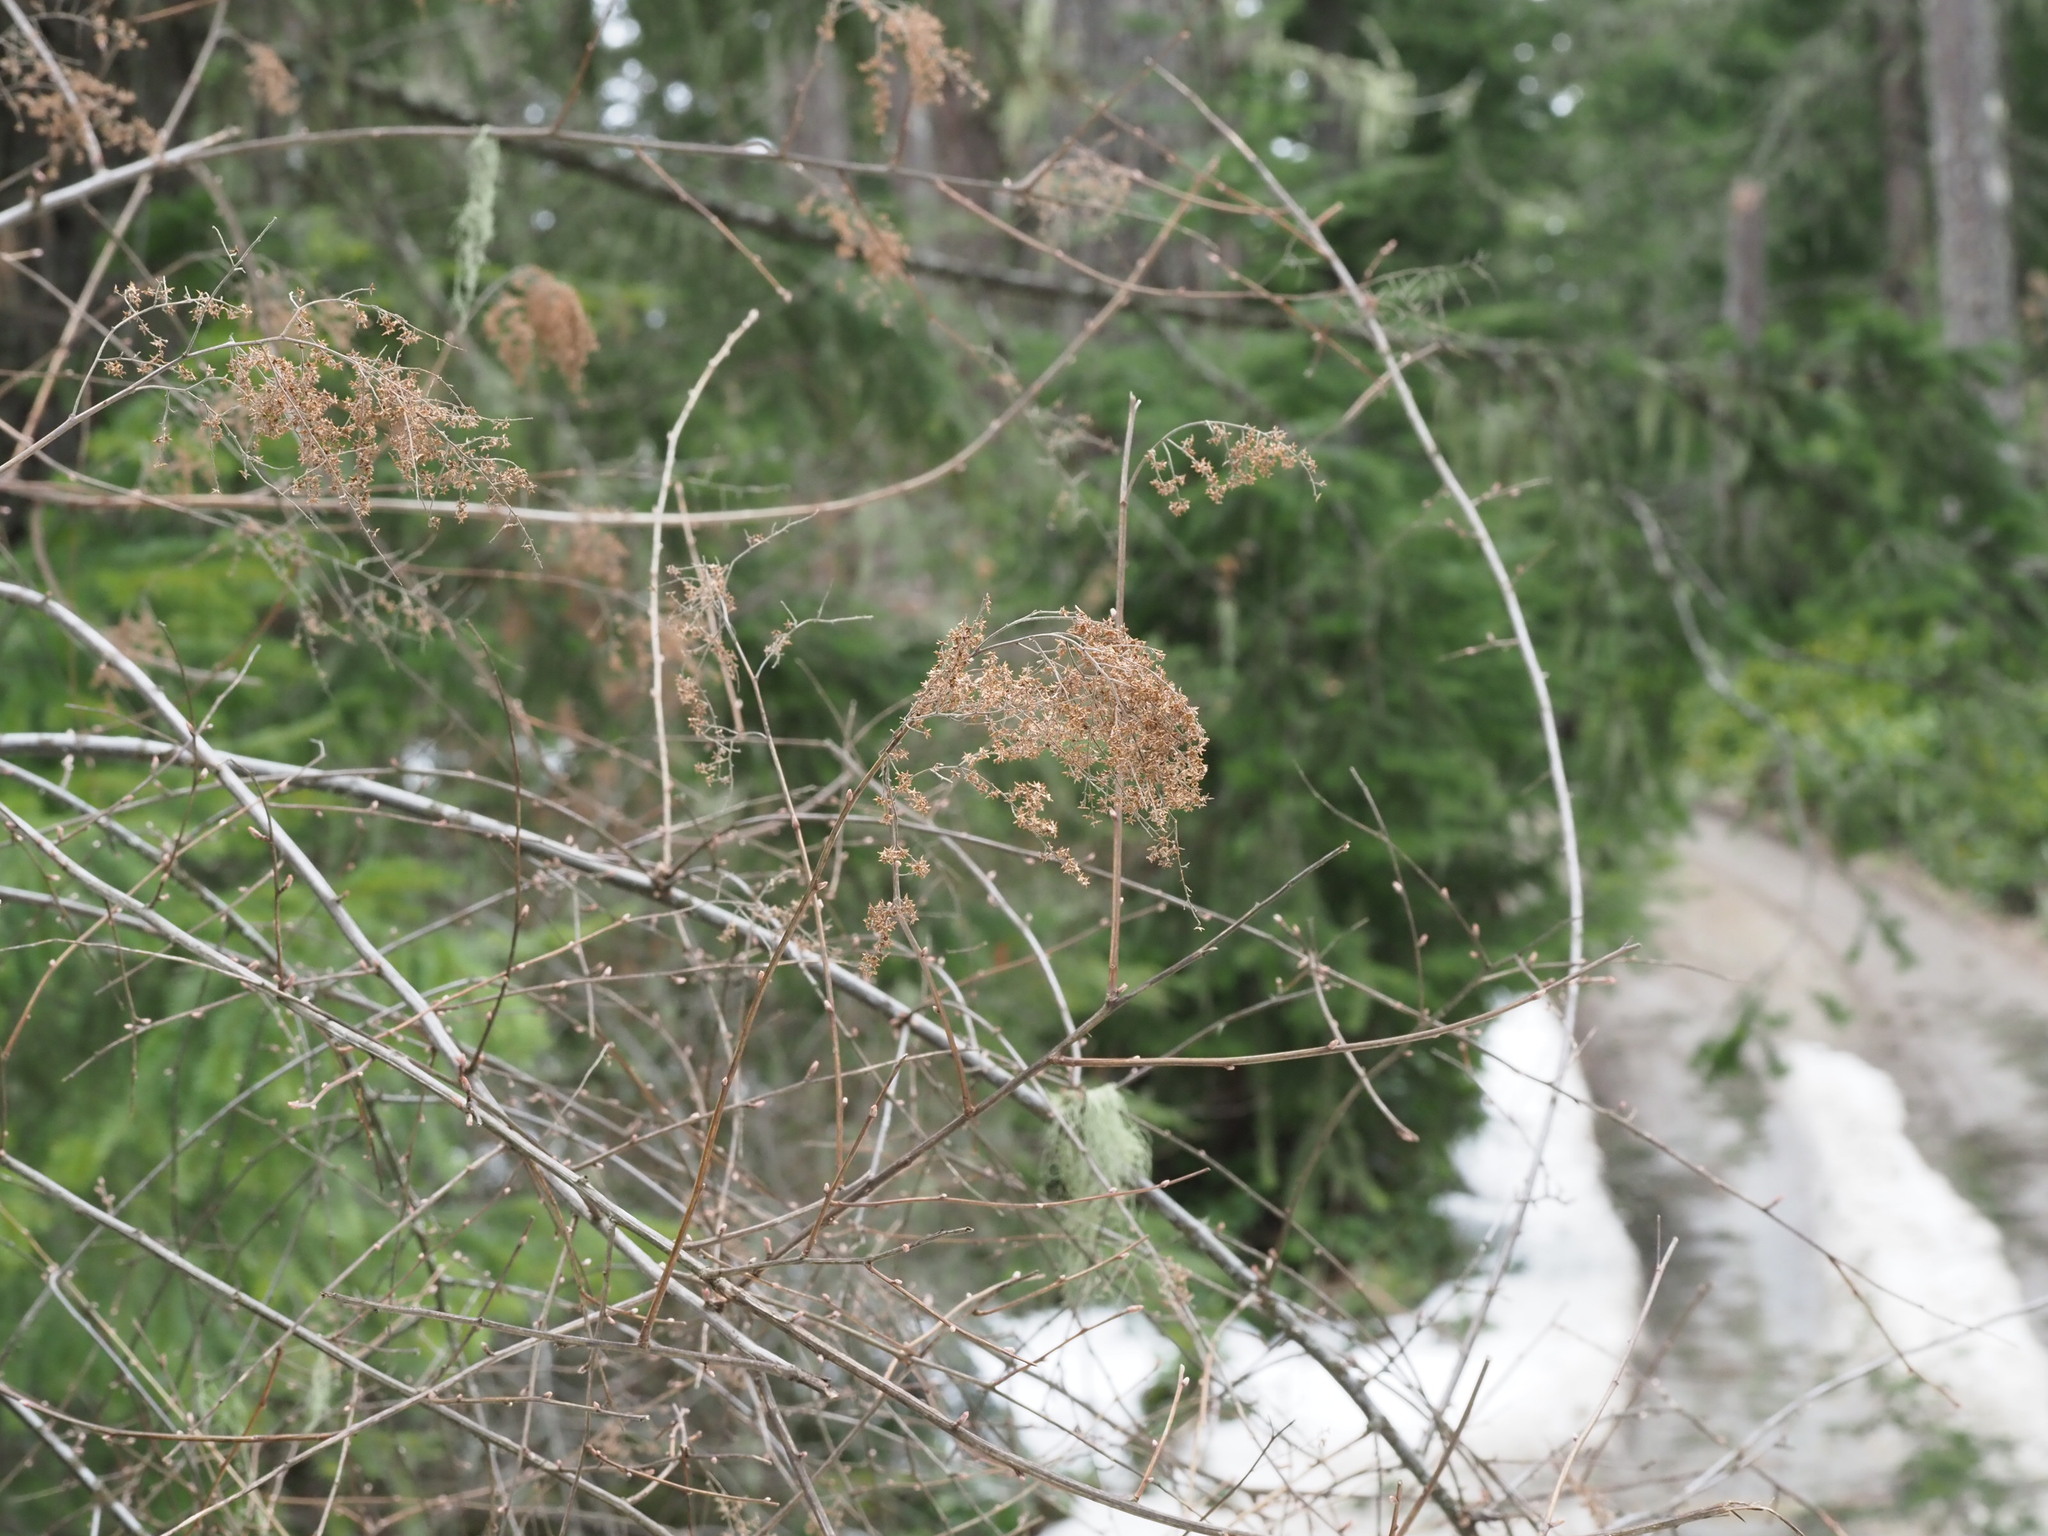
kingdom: Plantae
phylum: Tracheophyta
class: Magnoliopsida
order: Rosales
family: Rosaceae
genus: Holodiscus
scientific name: Holodiscus discolor
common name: Oceanspray
